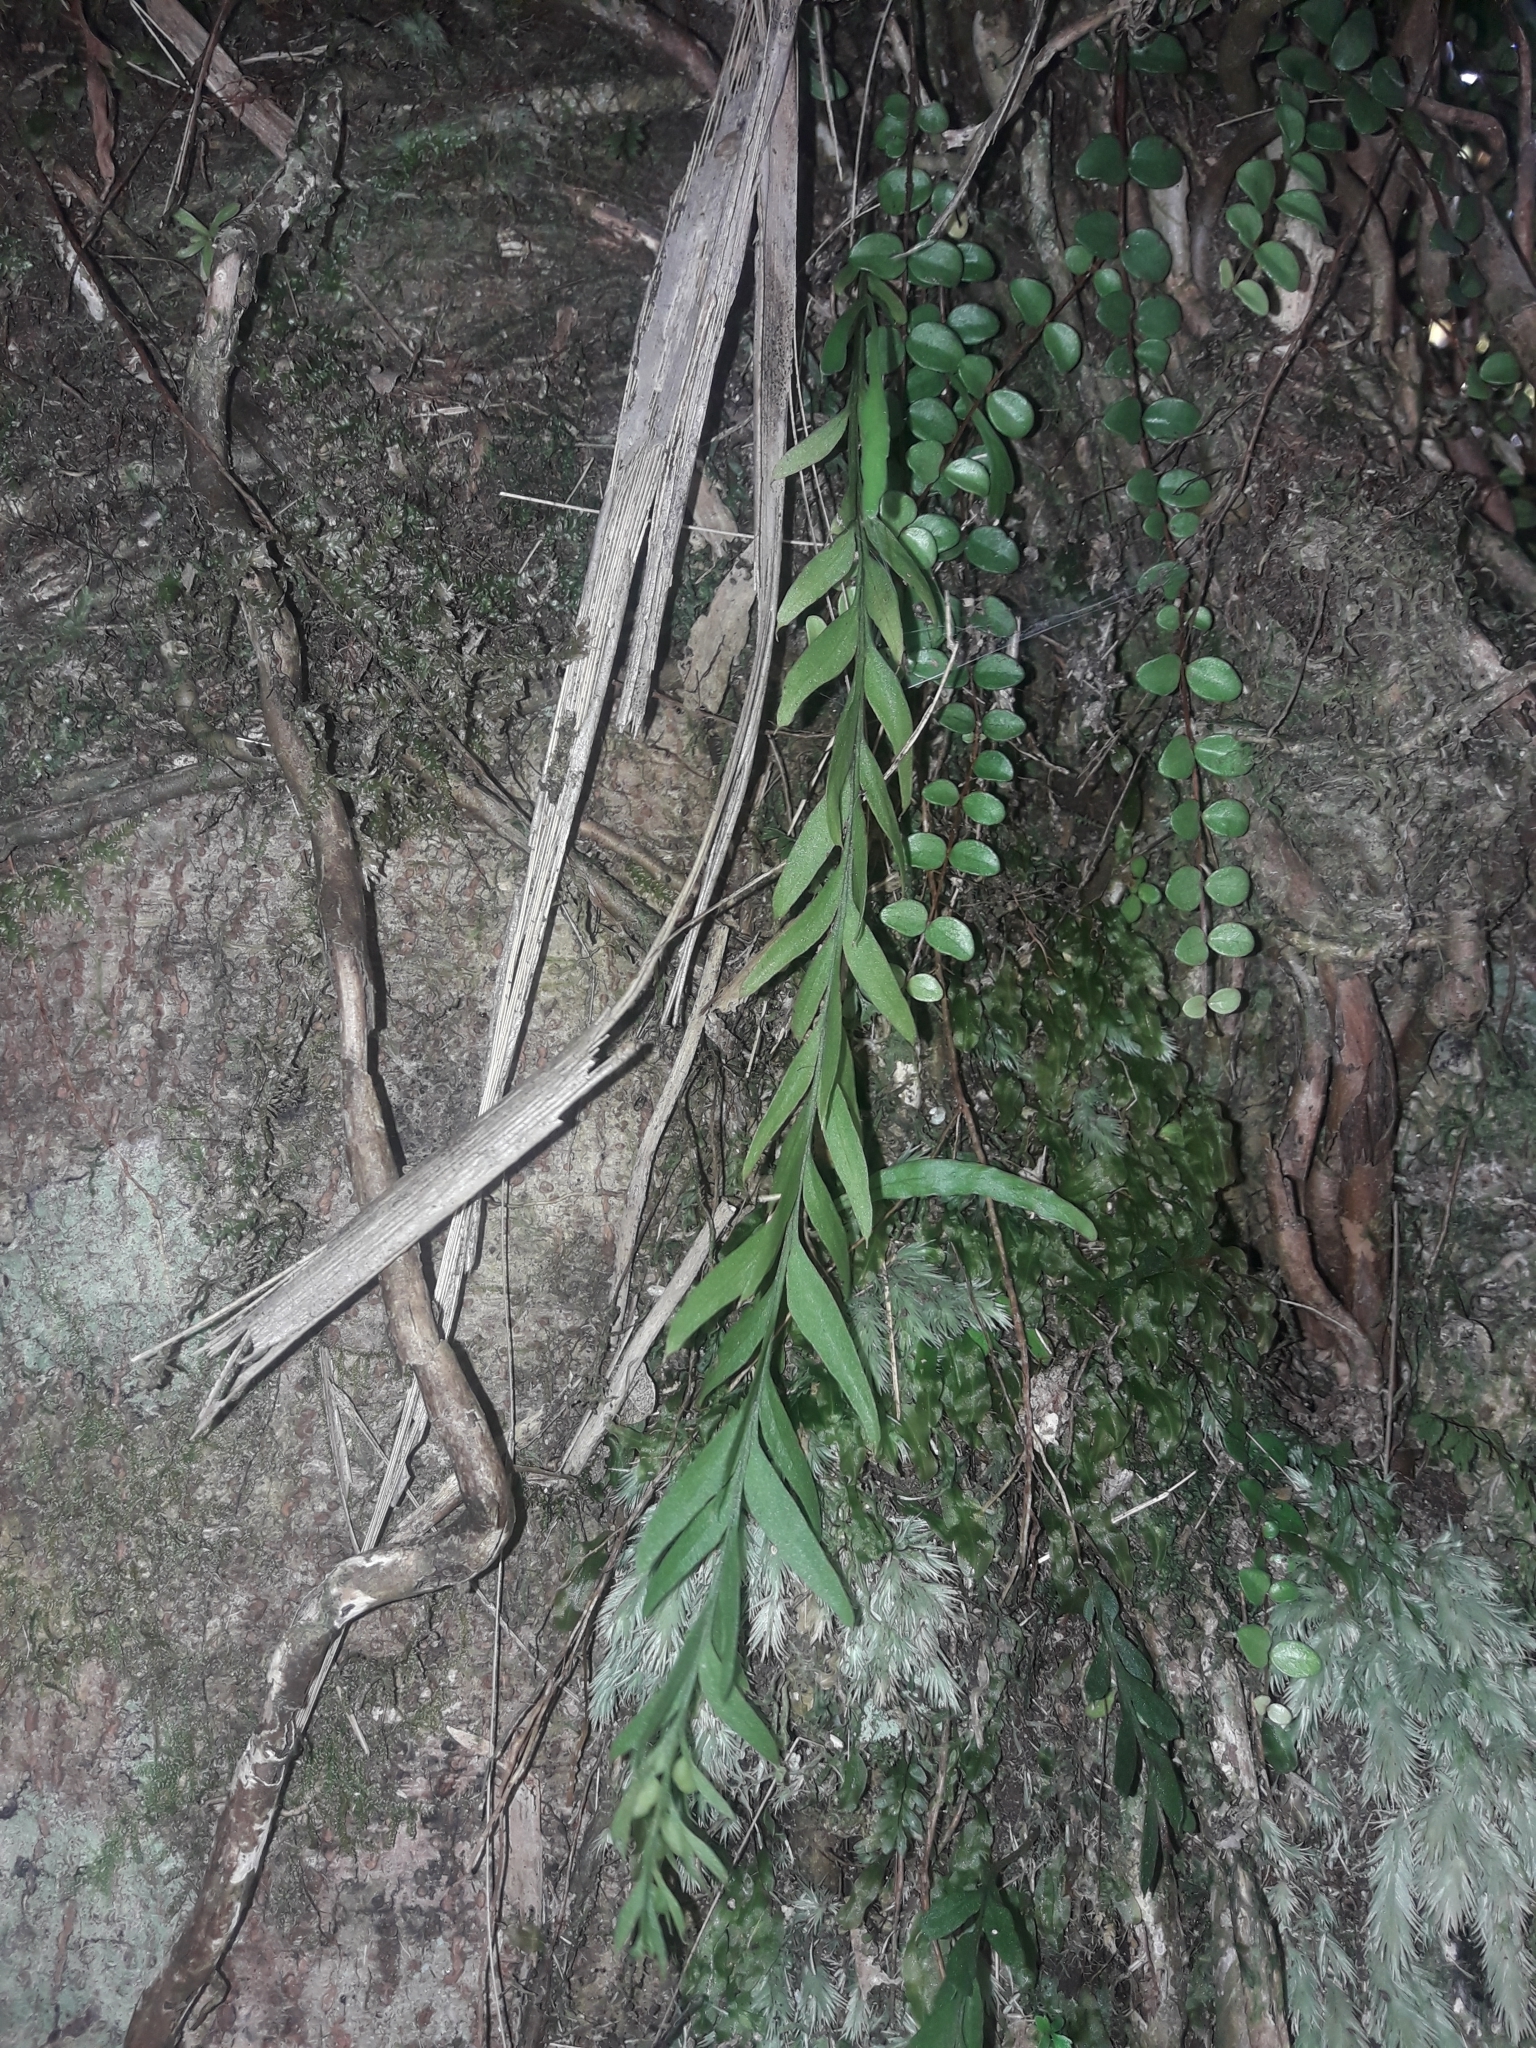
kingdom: Plantae
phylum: Tracheophyta
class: Polypodiopsida
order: Psilotales
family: Psilotaceae
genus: Tmesipteris
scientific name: Tmesipteris elongata
